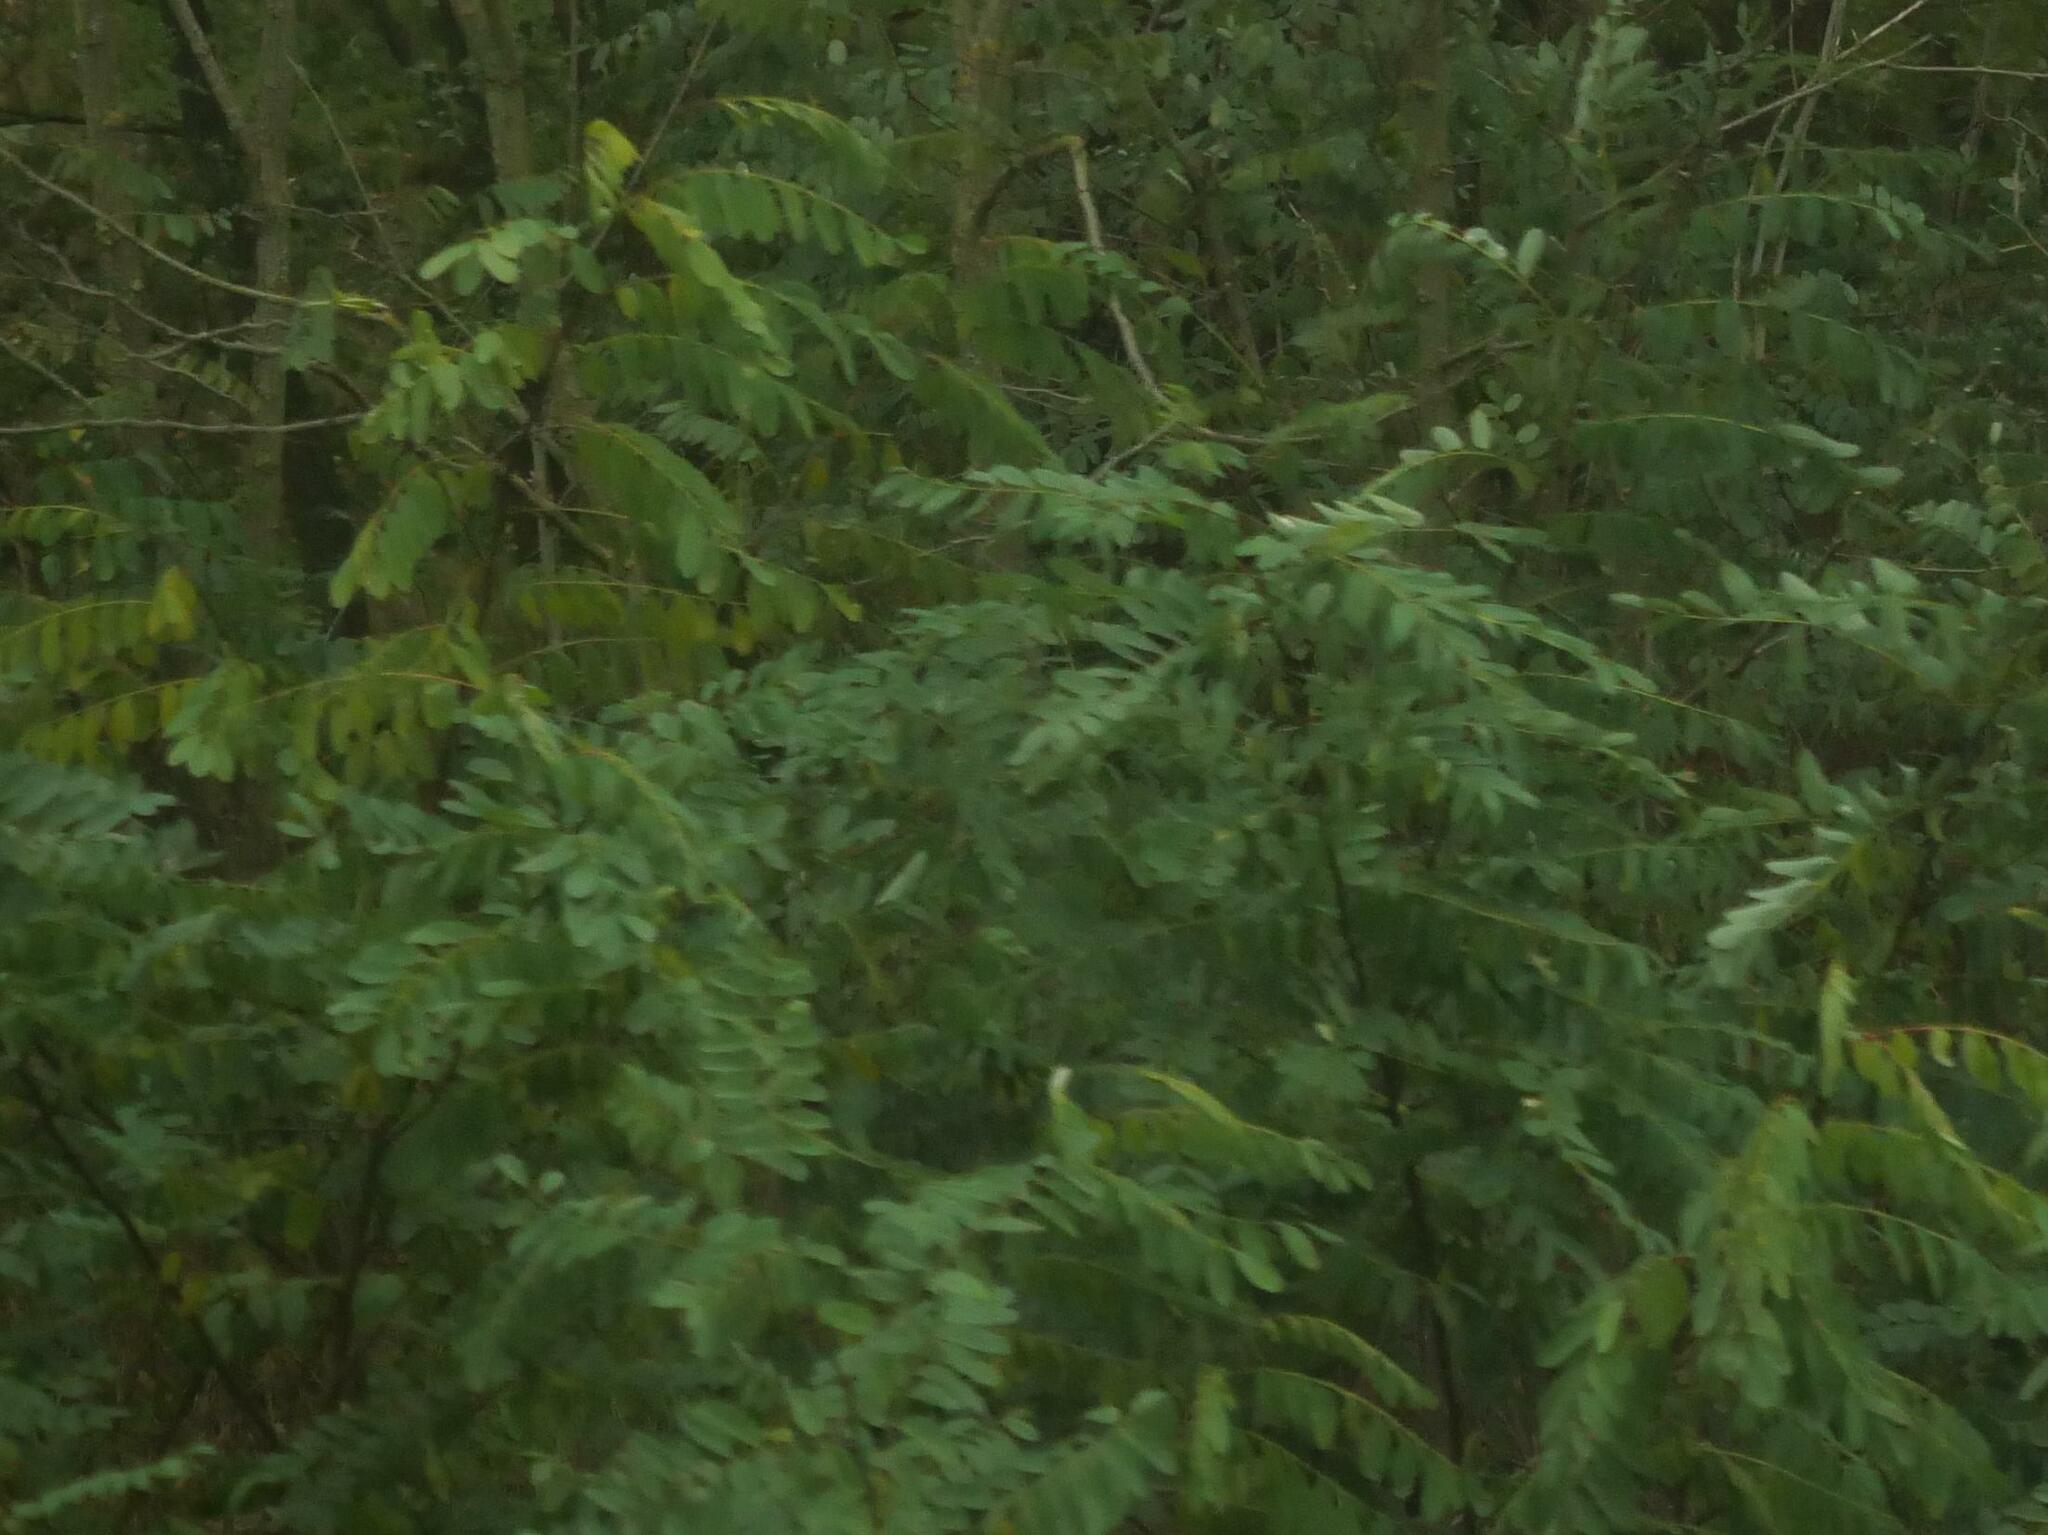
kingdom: Plantae
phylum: Tracheophyta
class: Magnoliopsida
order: Fabales
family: Fabaceae
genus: Robinia
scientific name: Robinia pseudoacacia
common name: Black locust
